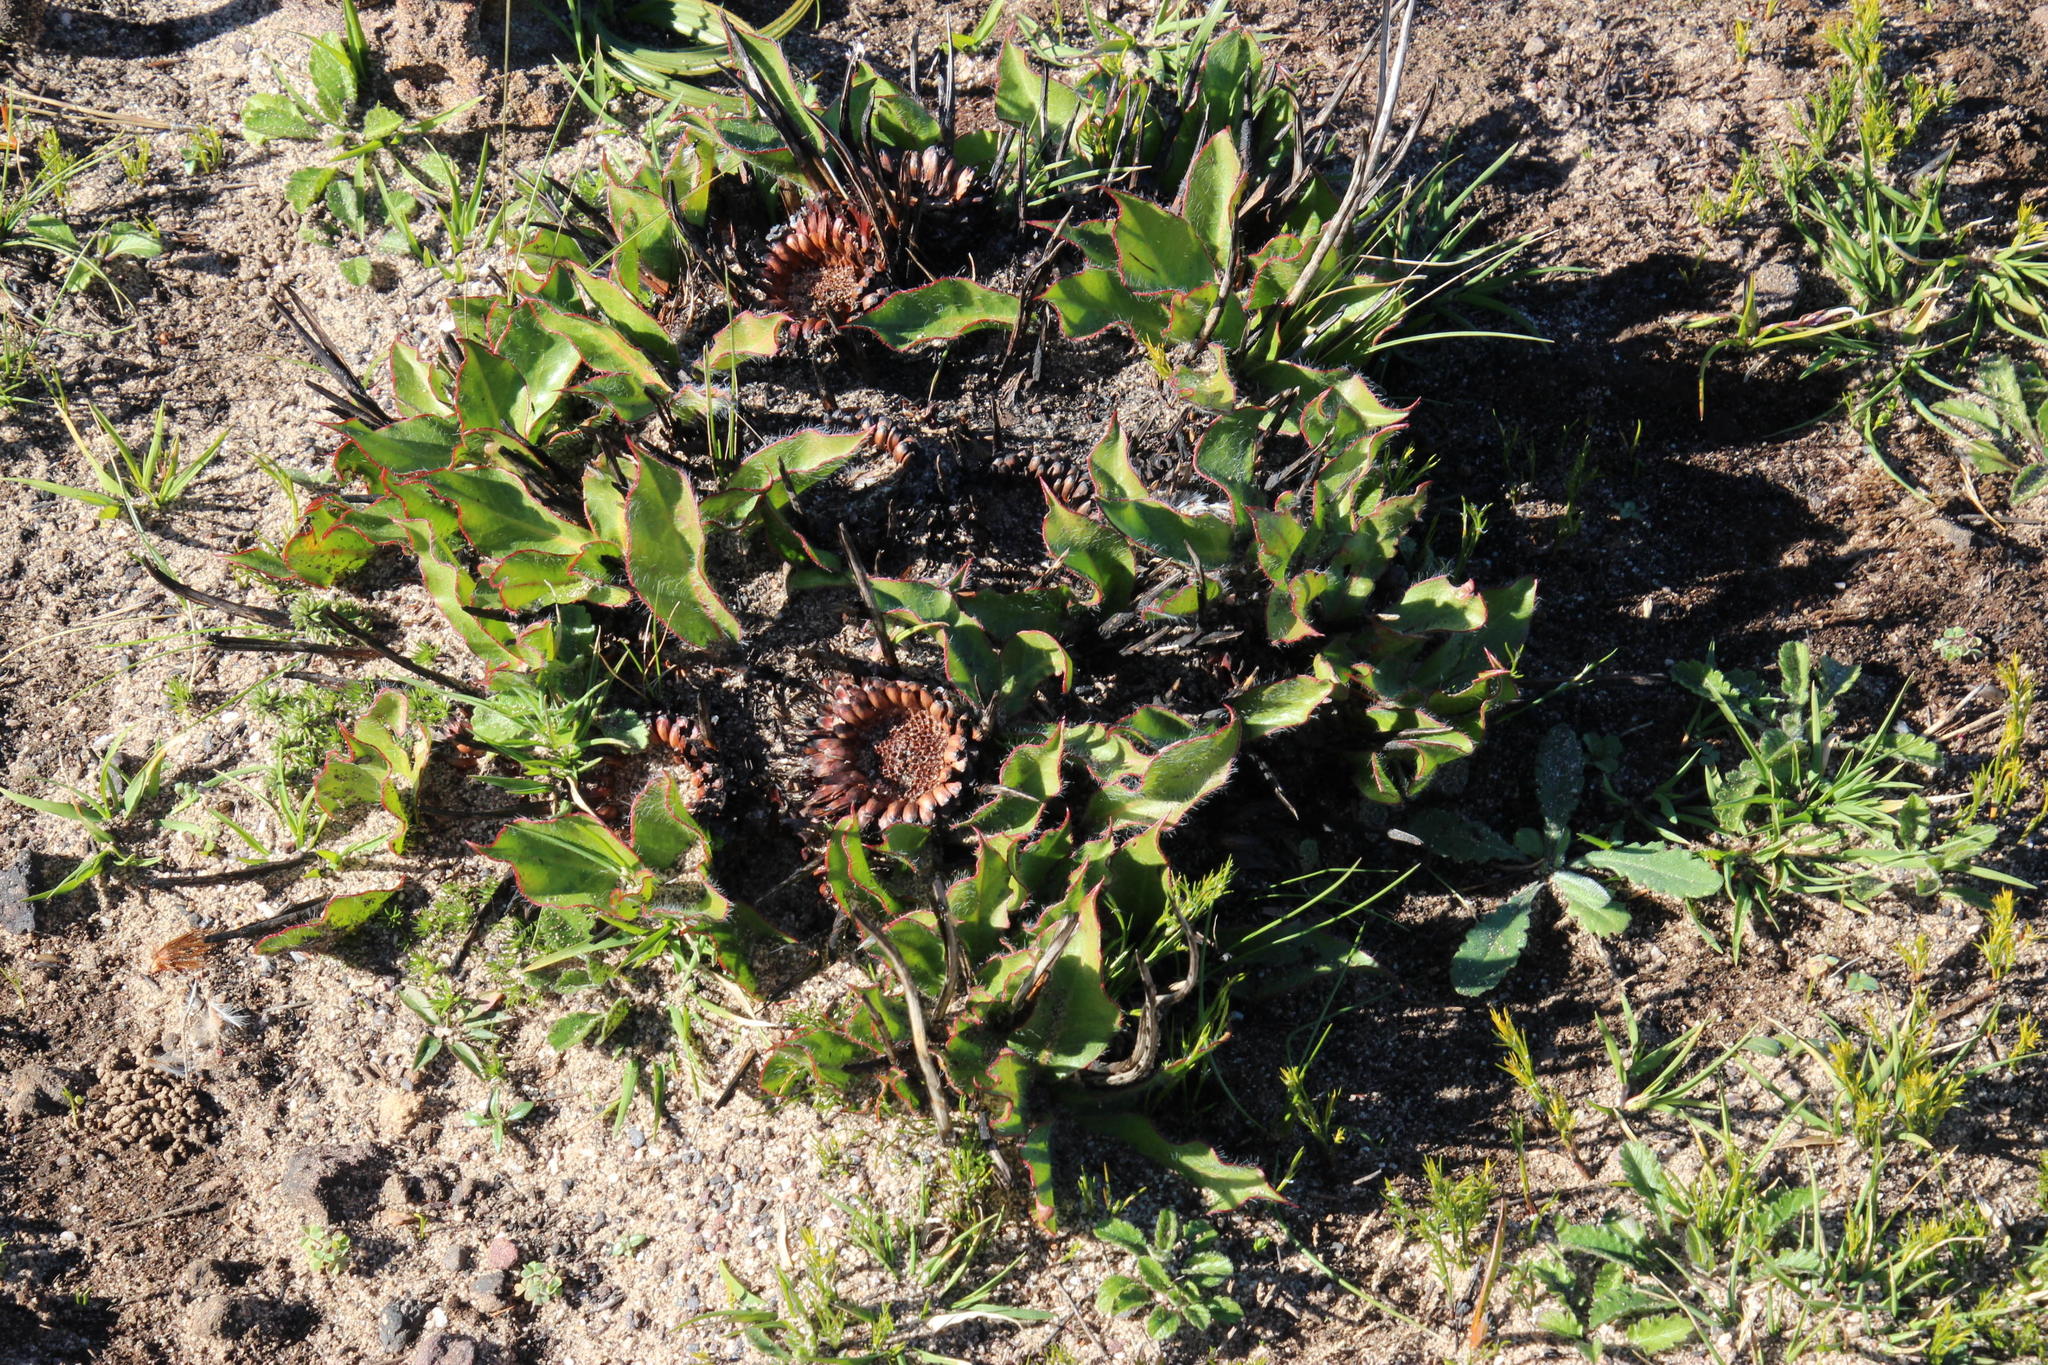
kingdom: Plantae
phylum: Tracheophyta
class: Magnoliopsida
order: Proteales
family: Proteaceae
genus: Protea
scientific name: Protea scolopendriifolia
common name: Harts-tongue-fern sugarbush
